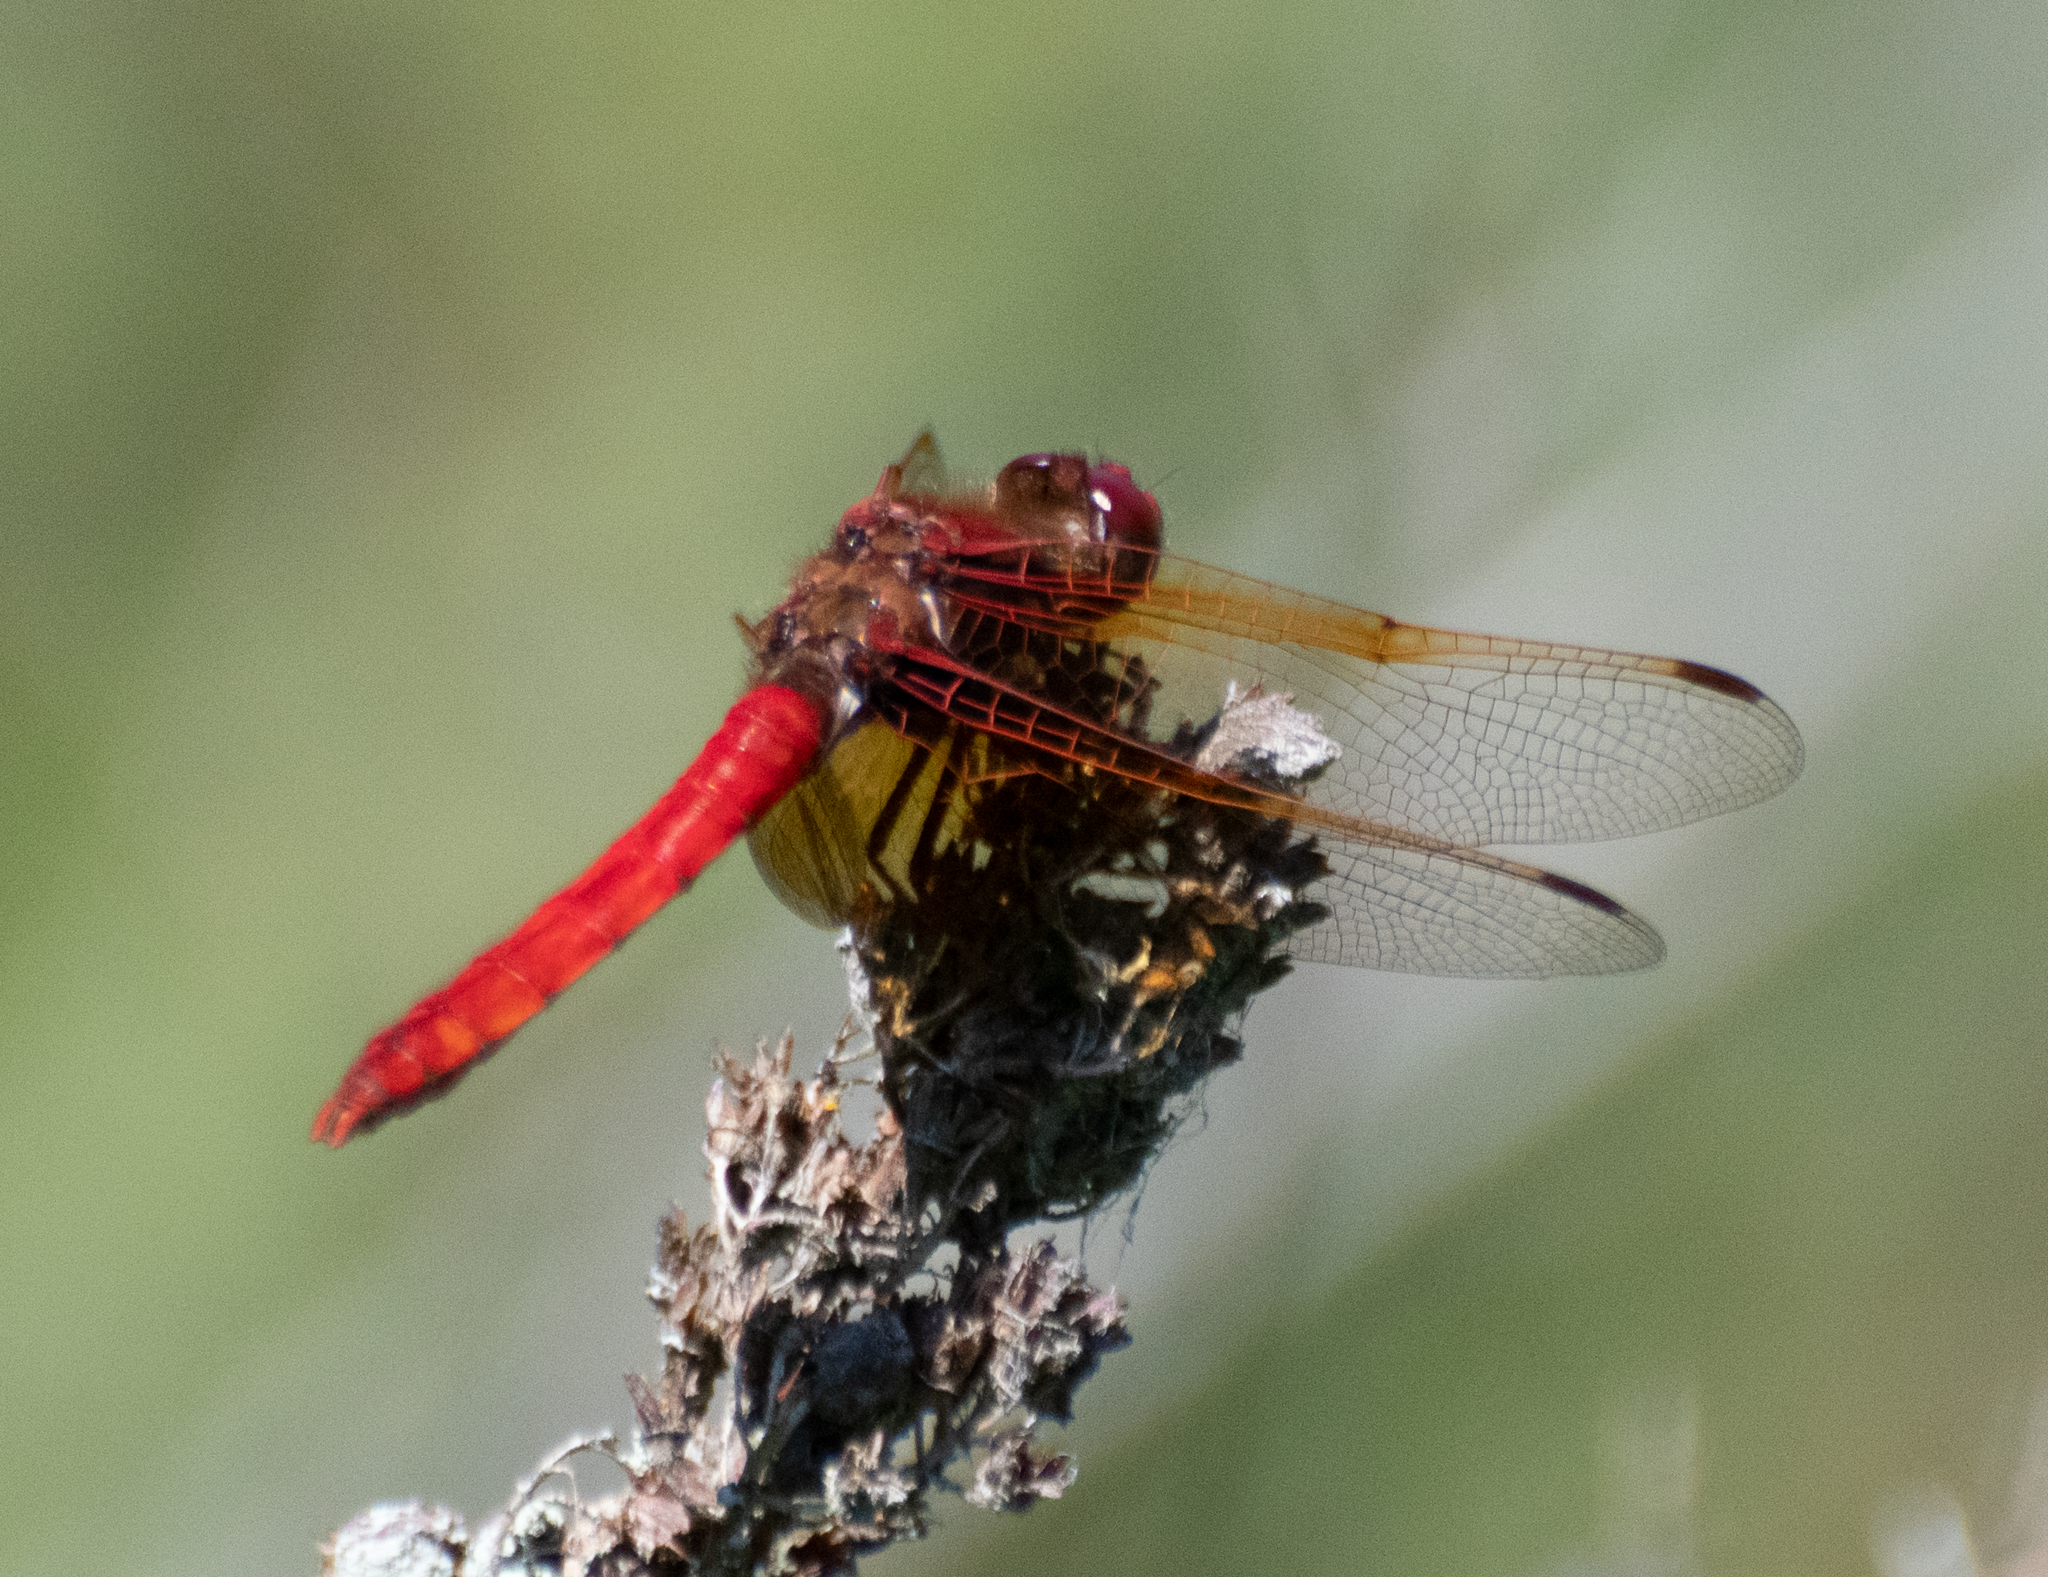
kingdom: Animalia
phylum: Arthropoda
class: Insecta
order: Odonata
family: Libellulidae
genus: Sympetrum
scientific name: Sympetrum illotum
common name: Cardinal meadowhawk
